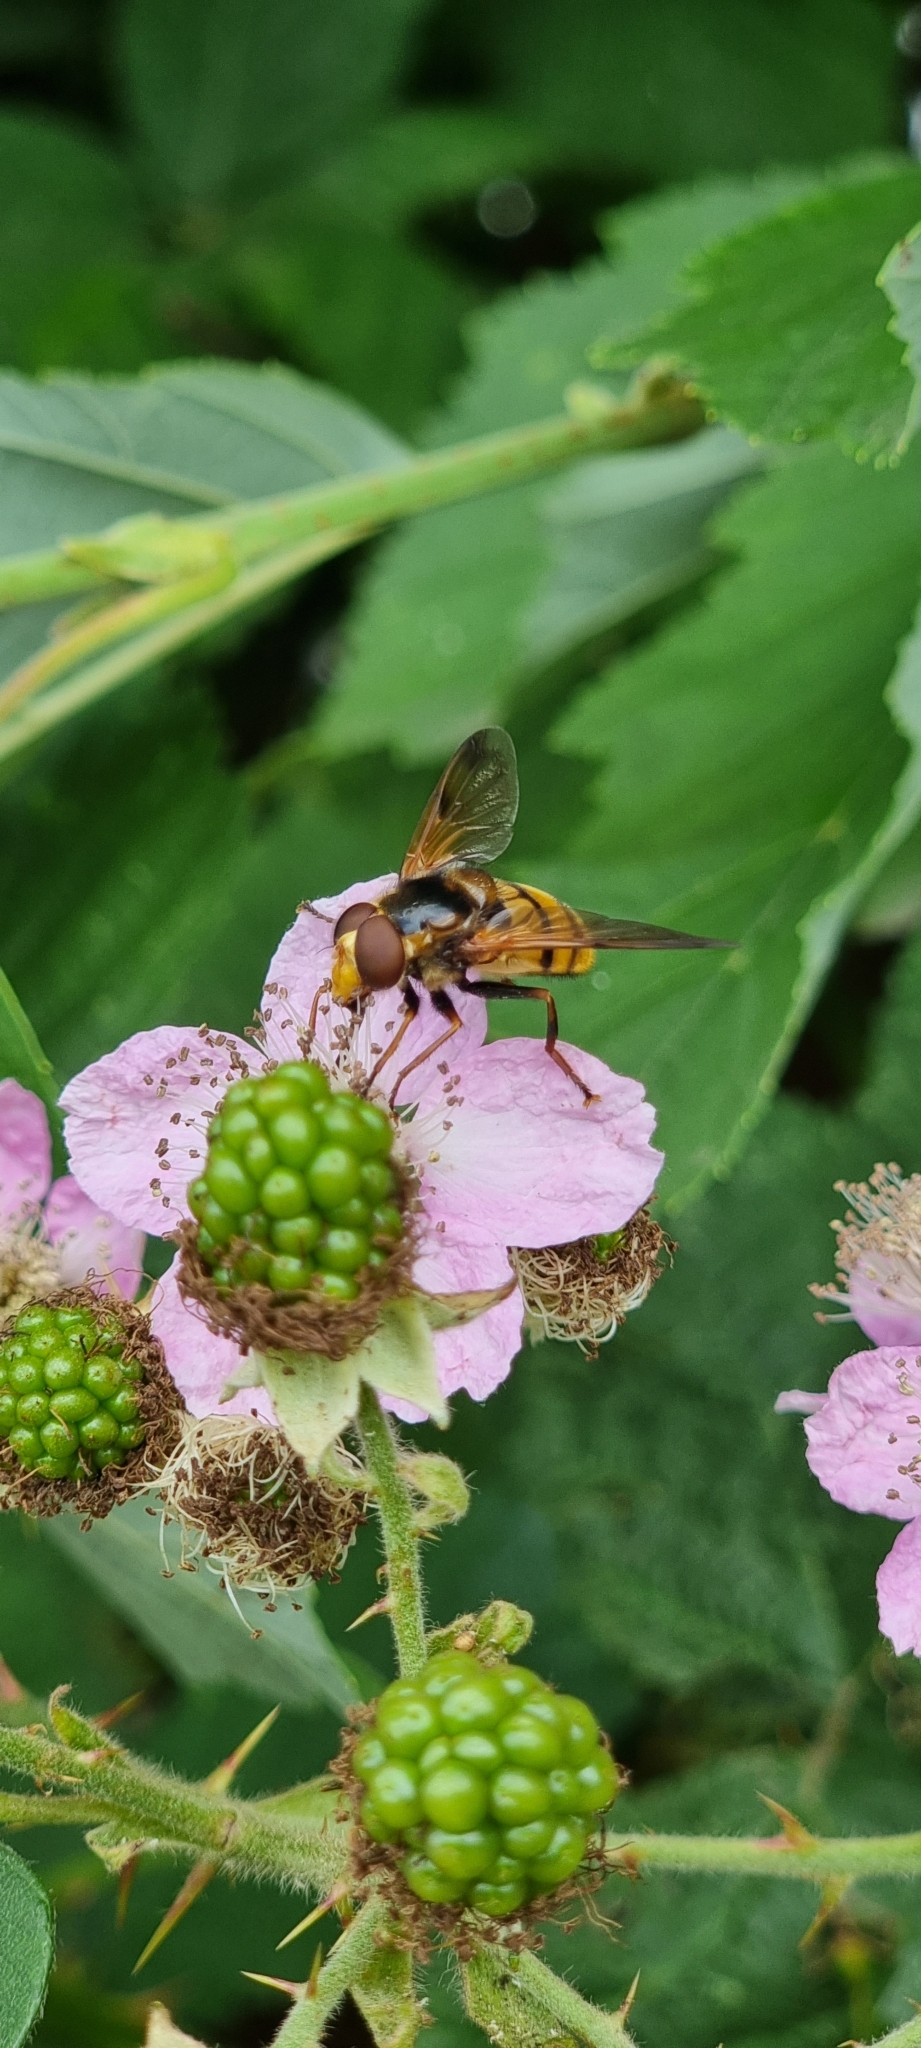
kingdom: Animalia
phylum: Arthropoda
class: Insecta
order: Diptera
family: Syrphidae
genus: Volucella
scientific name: Volucella inanis
